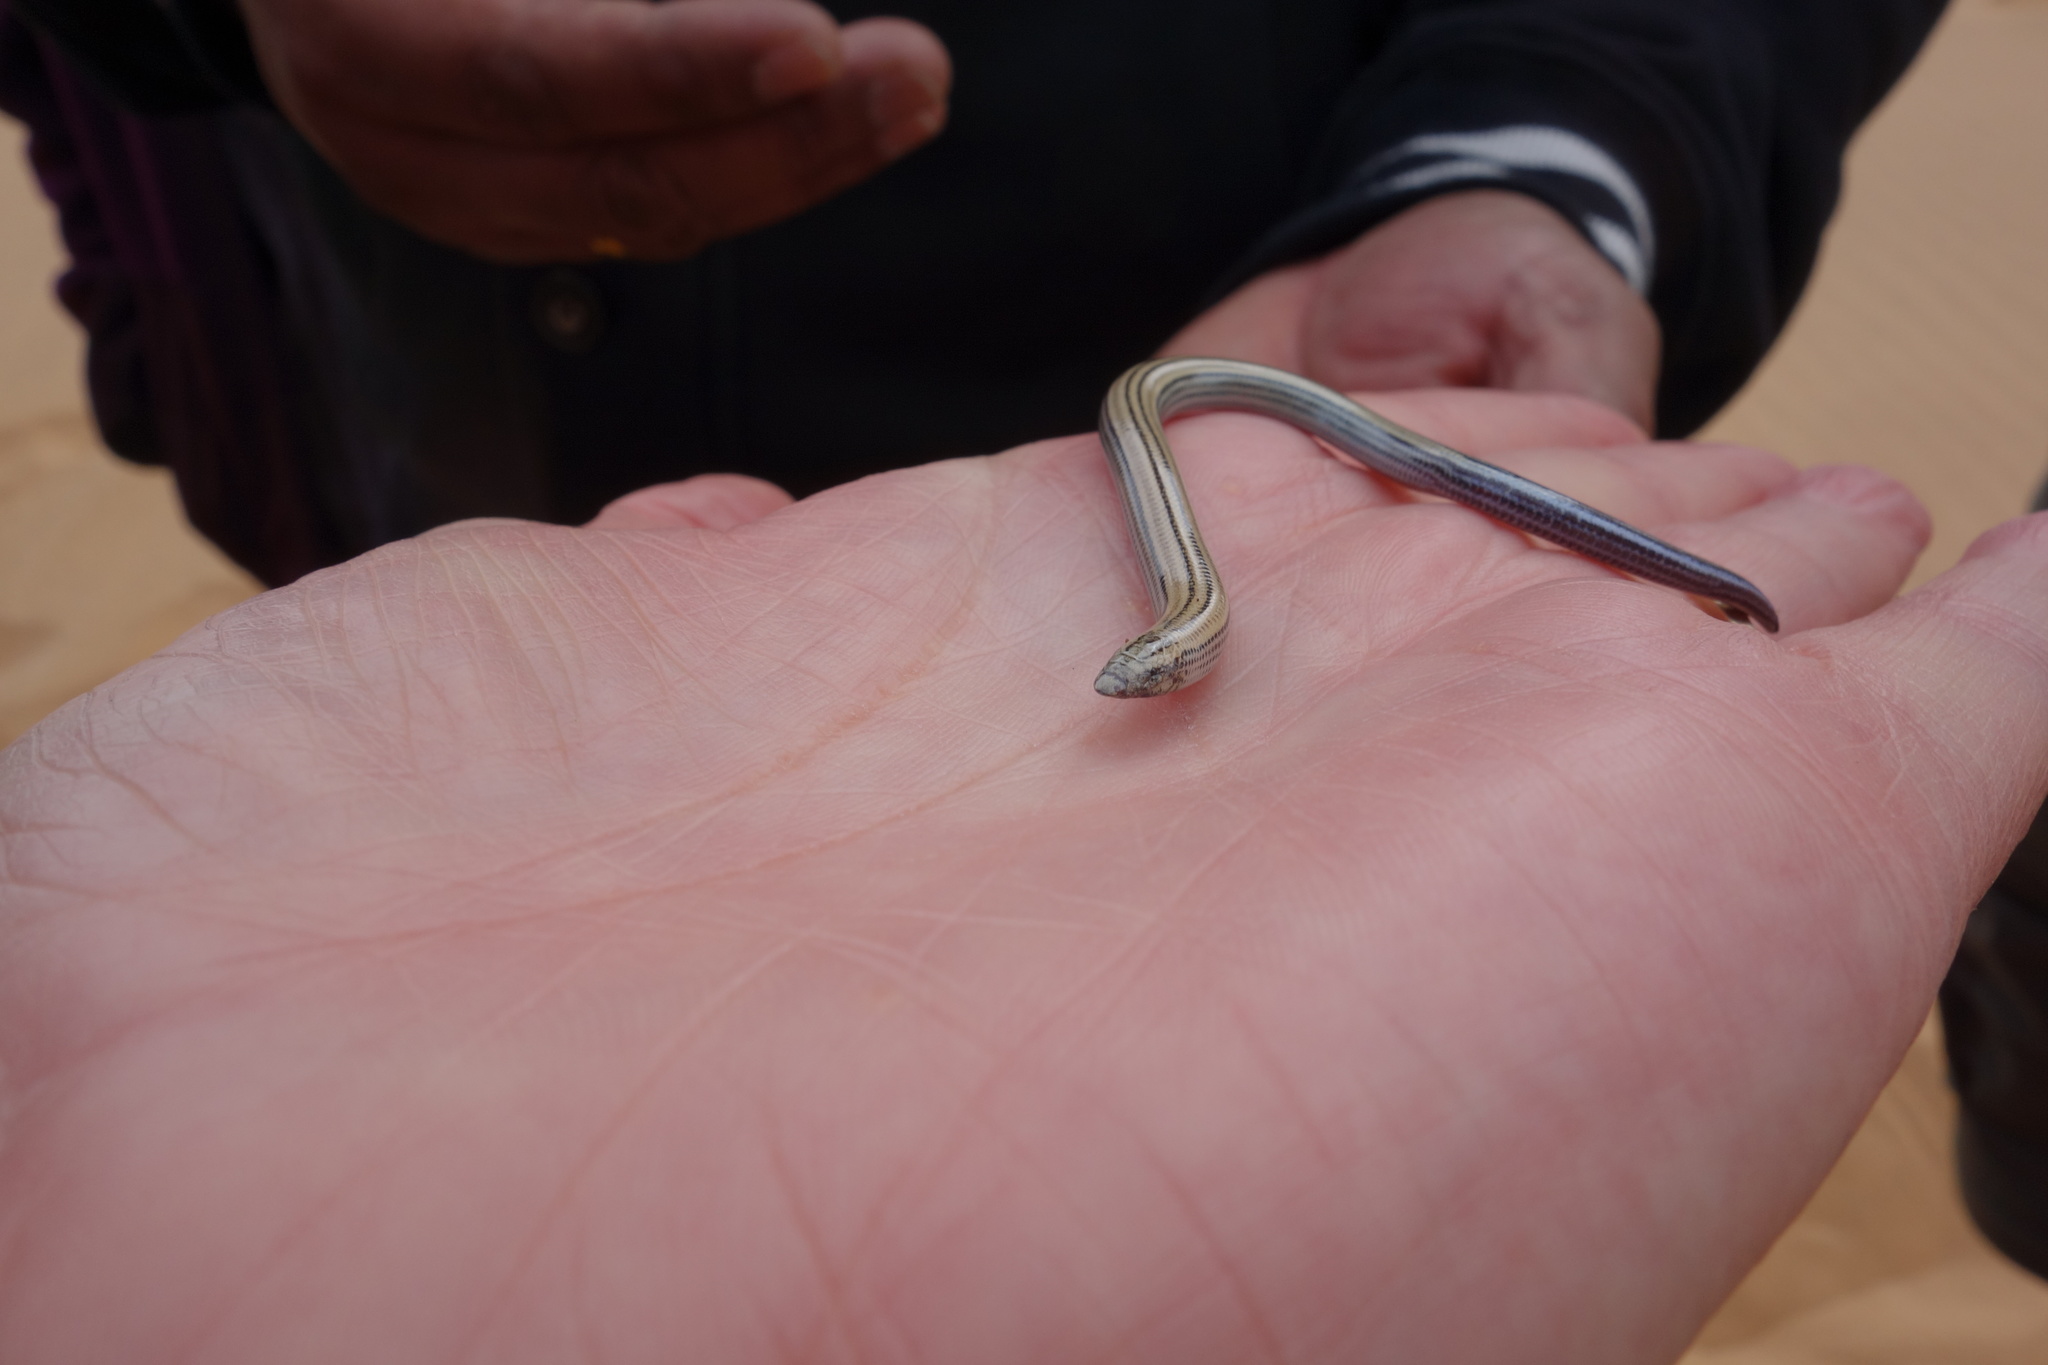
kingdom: Animalia
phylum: Chordata
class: Squamata
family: Scincidae
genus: Typhlacontias
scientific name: Typhlacontias brevipes
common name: Short blind dart skink
